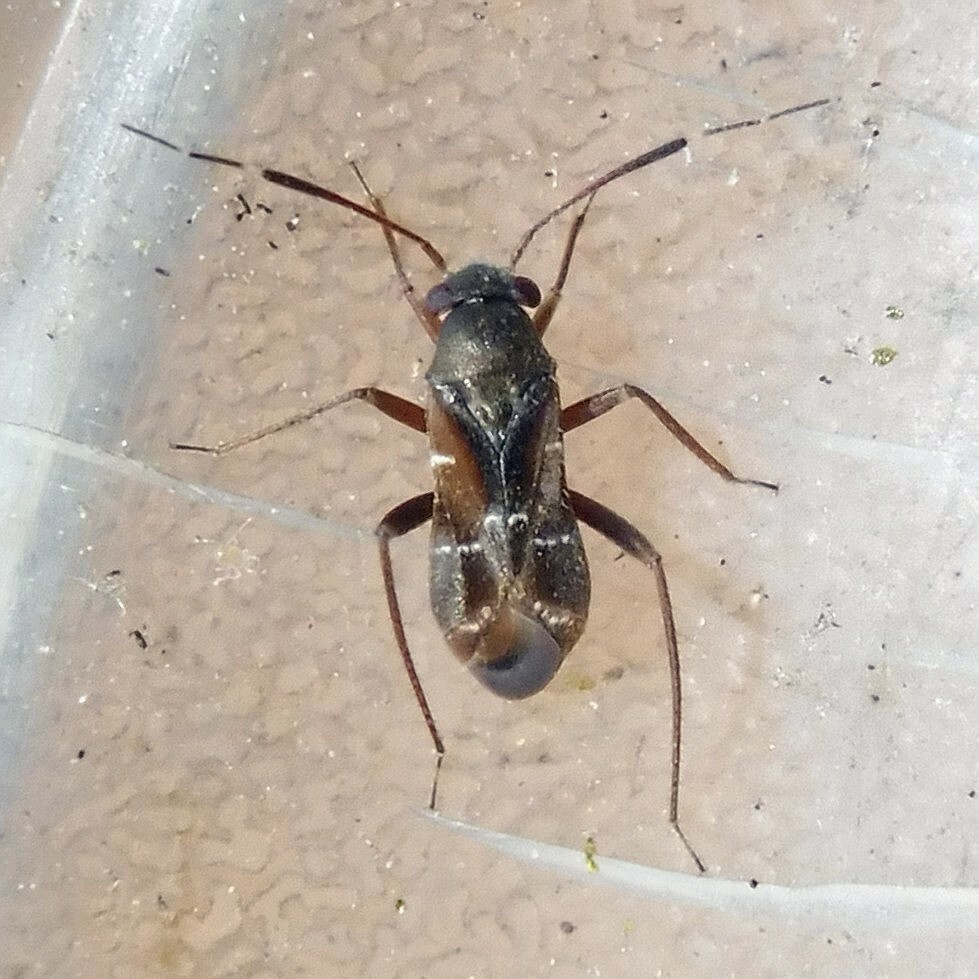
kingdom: Animalia
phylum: Arthropoda
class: Insecta
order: Hemiptera
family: Miridae
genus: Pilophorus
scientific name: Pilophorus clavatus
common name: Plant bug
